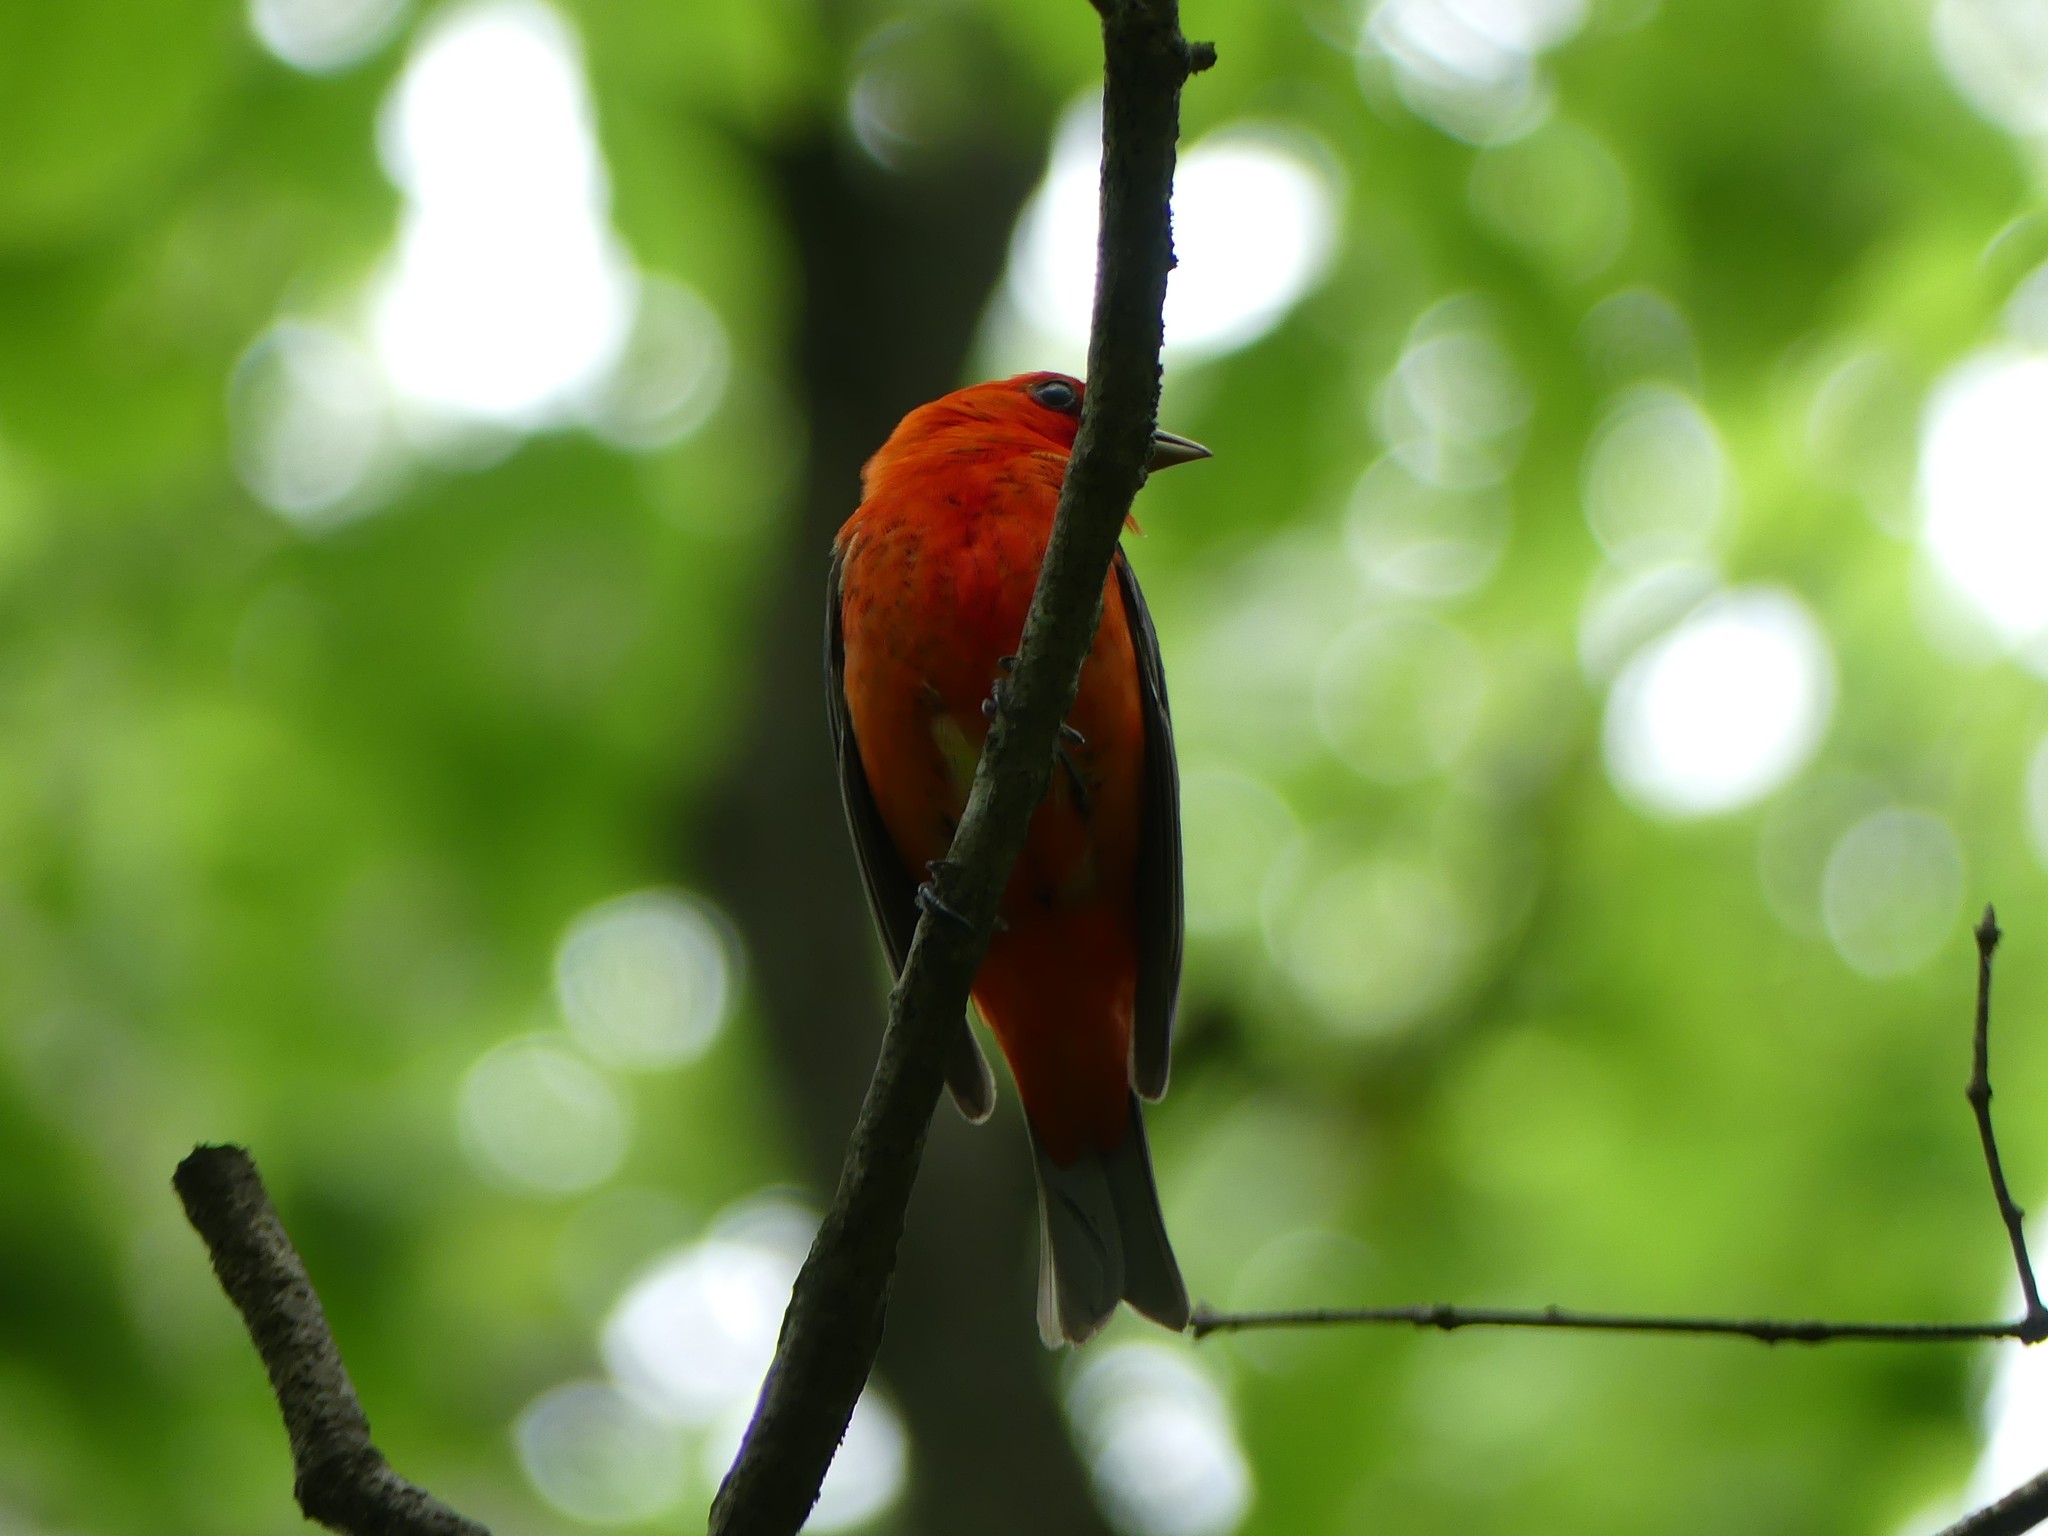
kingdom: Animalia
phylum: Chordata
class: Aves
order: Passeriformes
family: Cardinalidae
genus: Piranga
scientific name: Piranga olivacea
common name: Scarlet tanager
